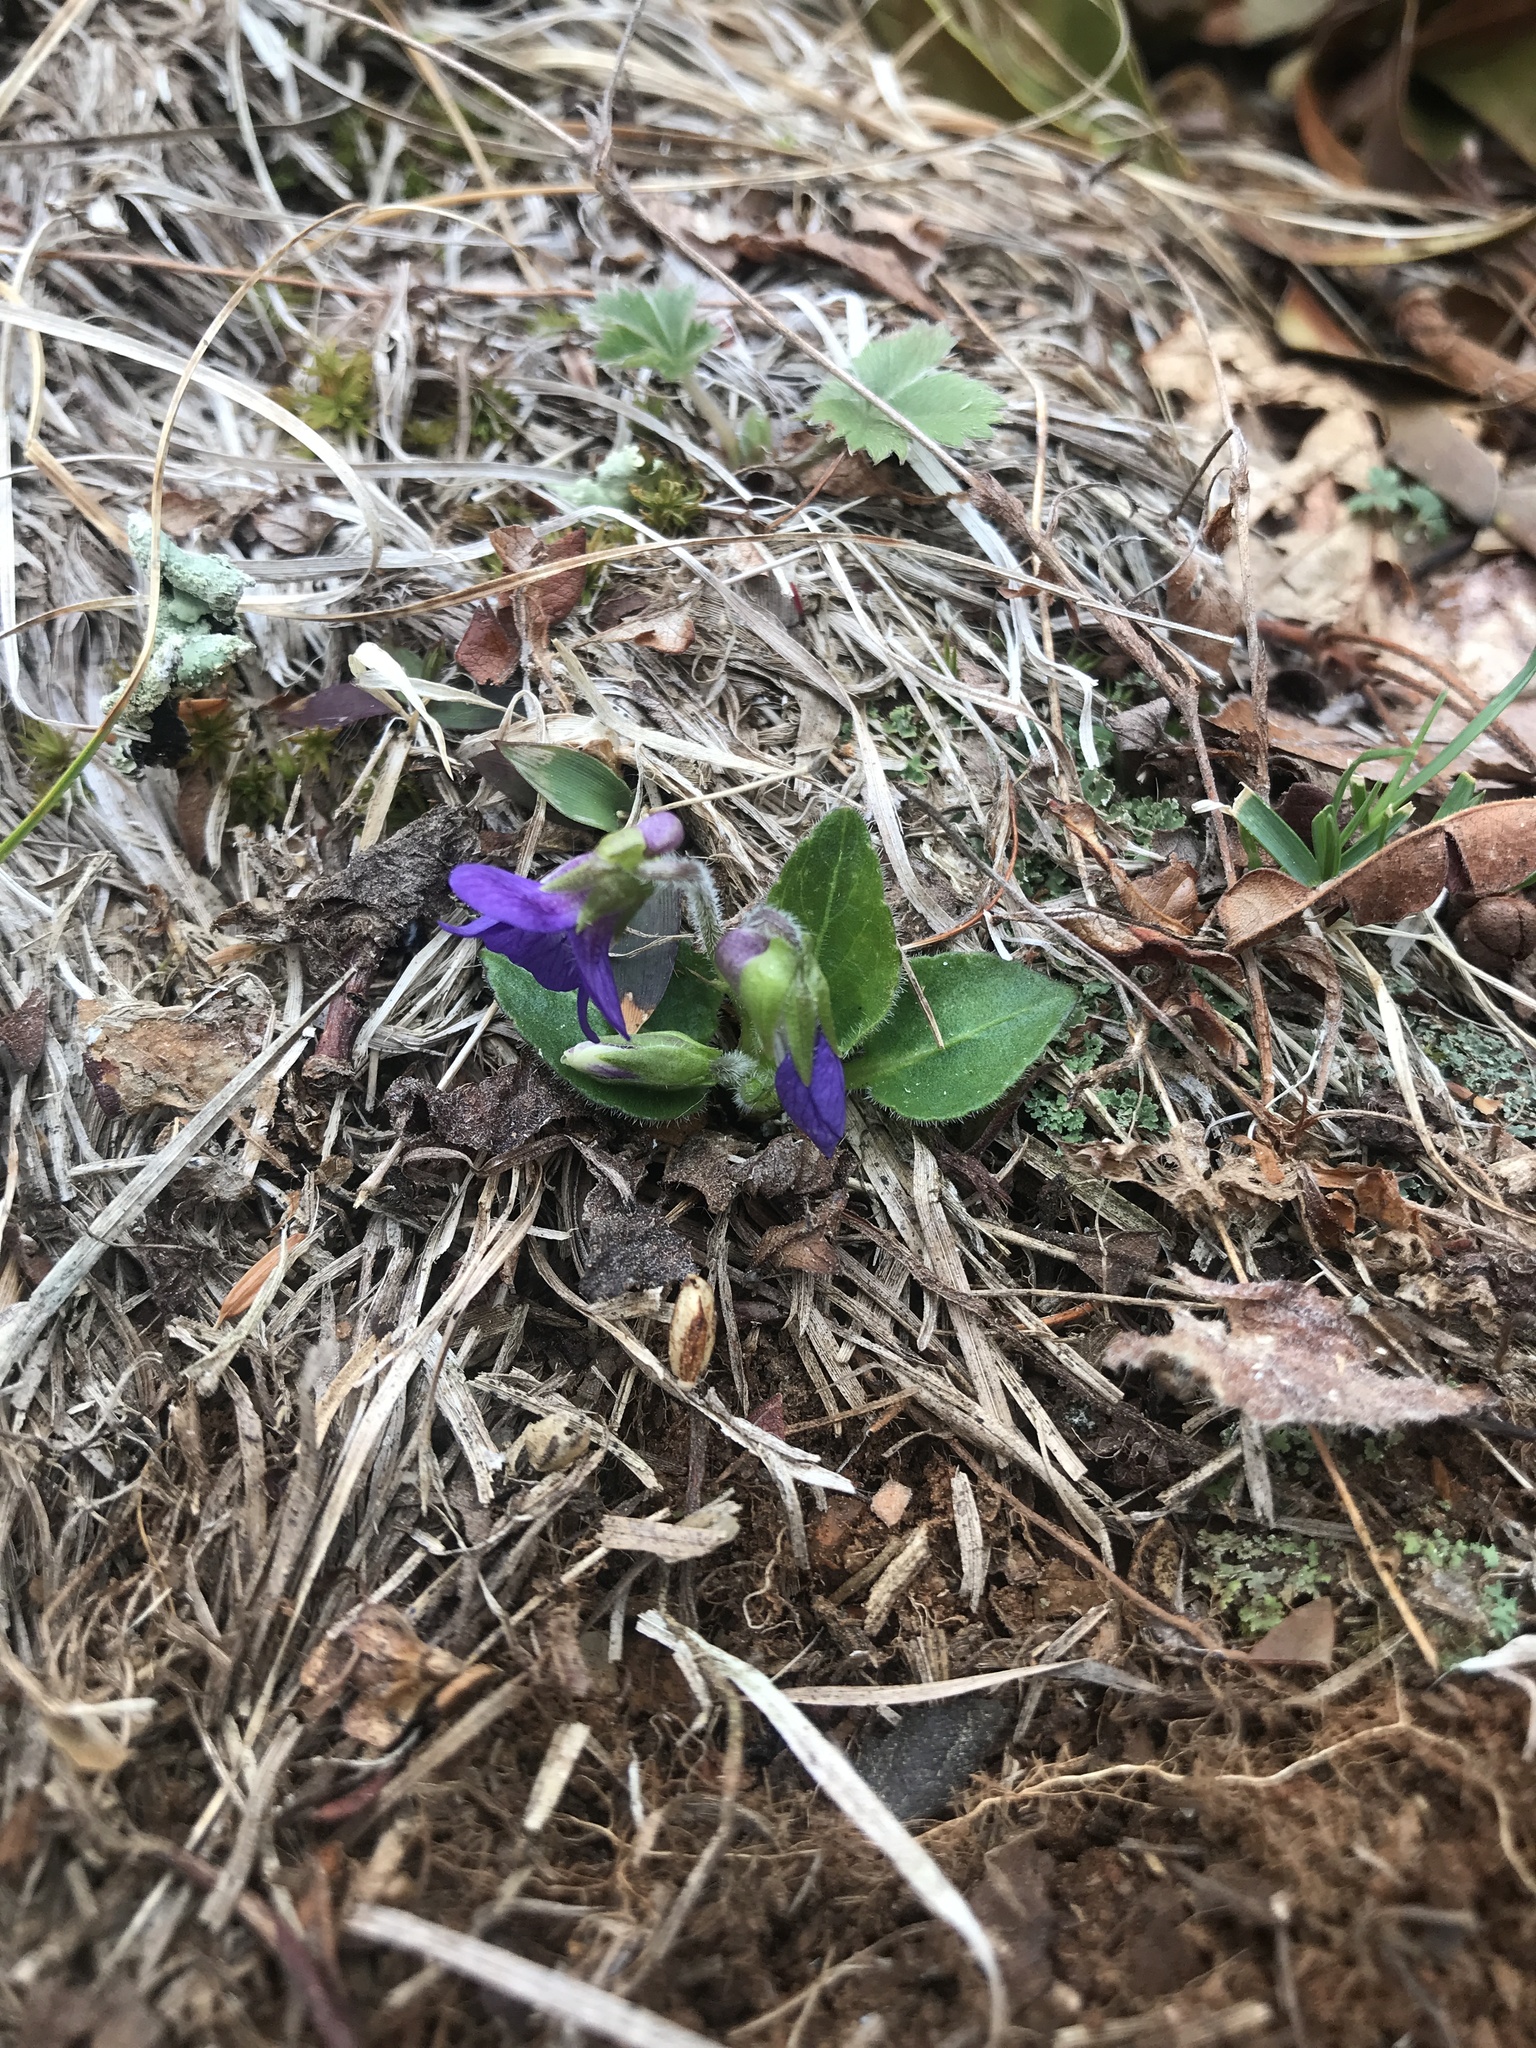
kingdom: Plantae
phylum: Tracheophyta
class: Magnoliopsida
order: Malpighiales
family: Violaceae
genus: Viola
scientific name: Viola sagittata
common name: Arrowhead violet
